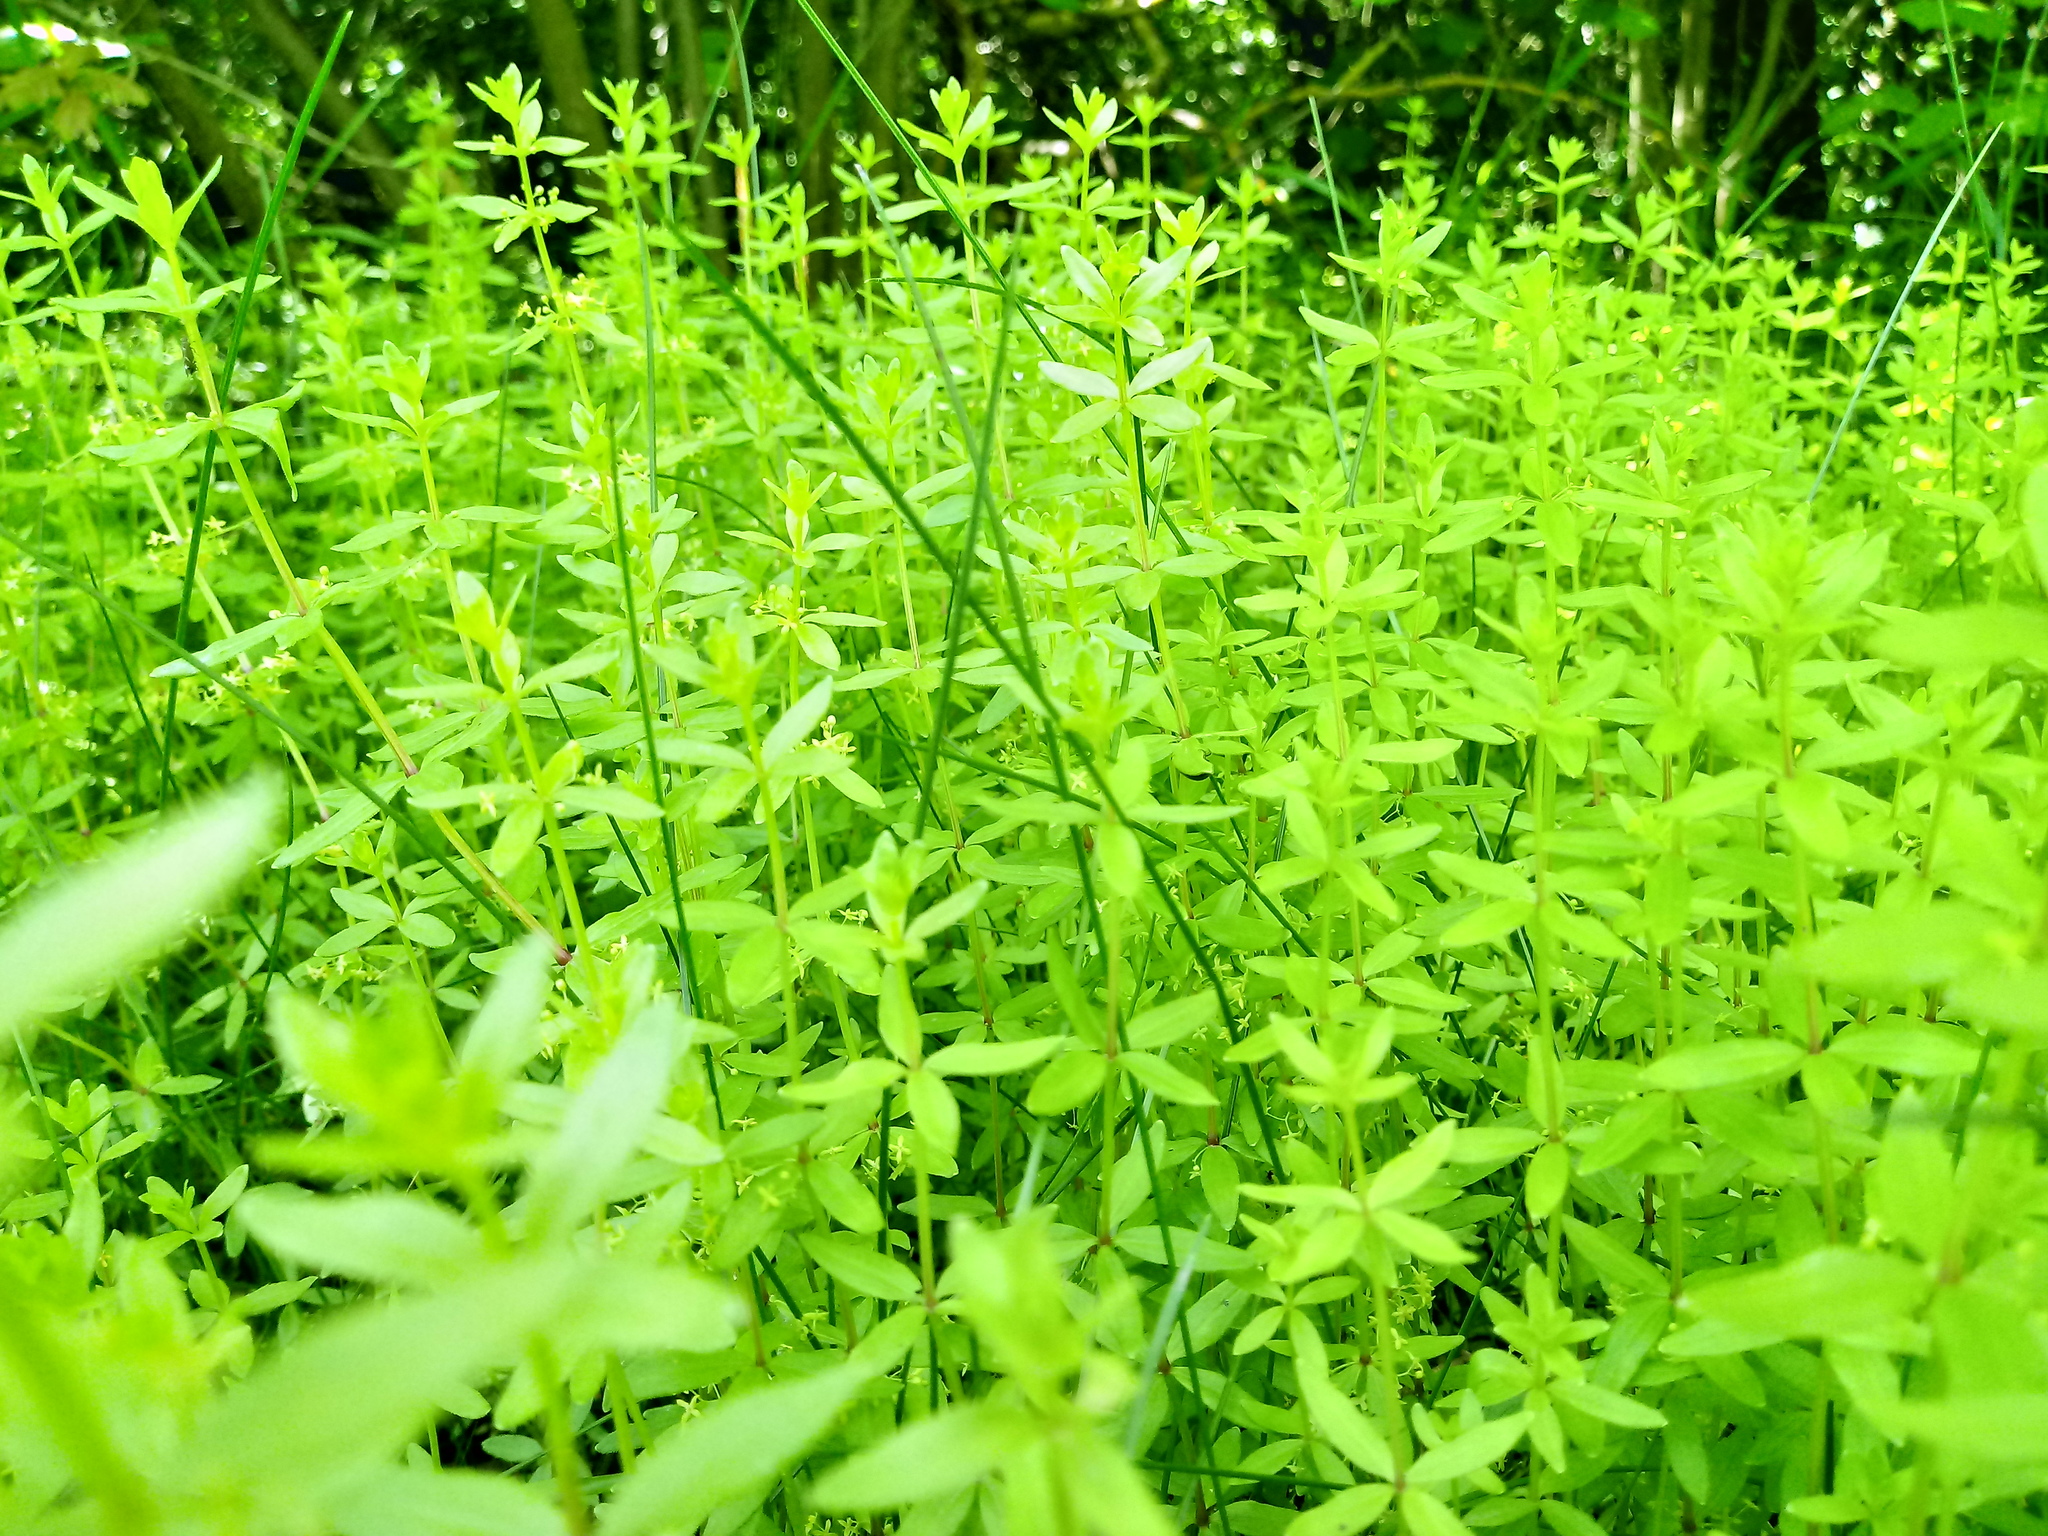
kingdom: Plantae
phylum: Tracheophyta
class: Magnoliopsida
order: Gentianales
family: Rubiaceae
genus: Cruciata
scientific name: Cruciata glabra
